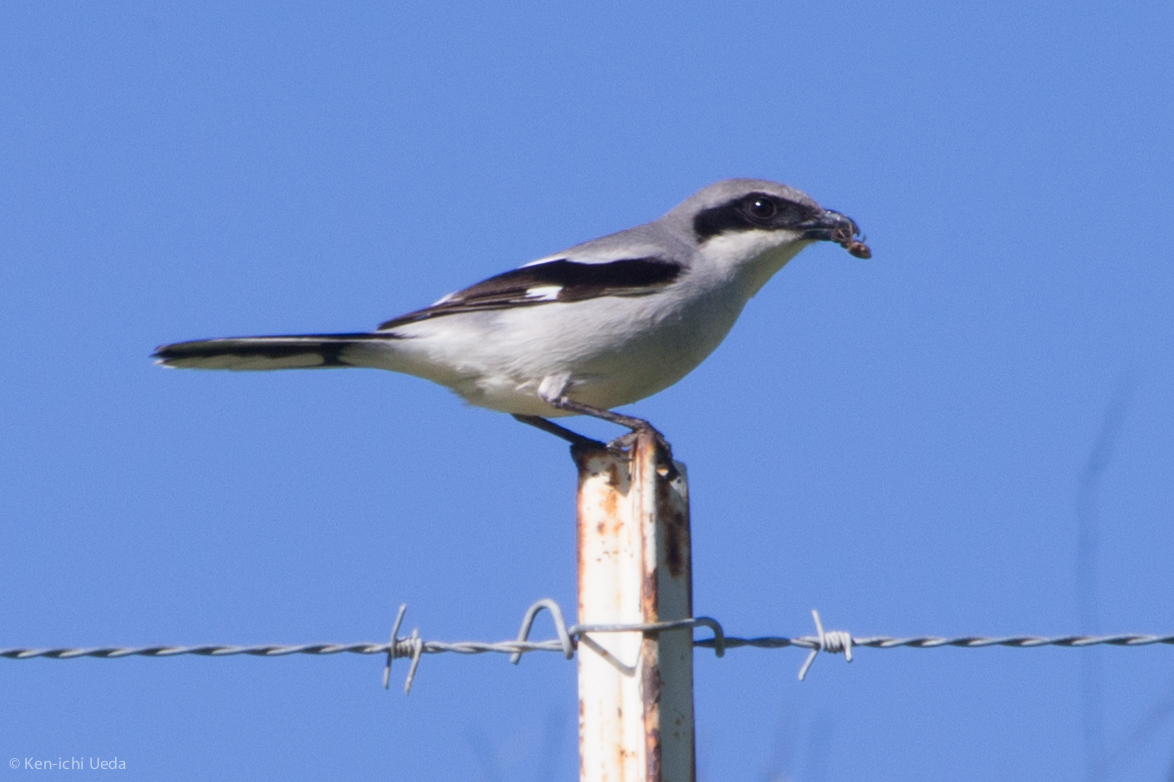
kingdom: Animalia
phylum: Chordata
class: Aves
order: Passeriformes
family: Laniidae
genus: Lanius
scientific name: Lanius ludovicianus
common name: Loggerhead shrike
